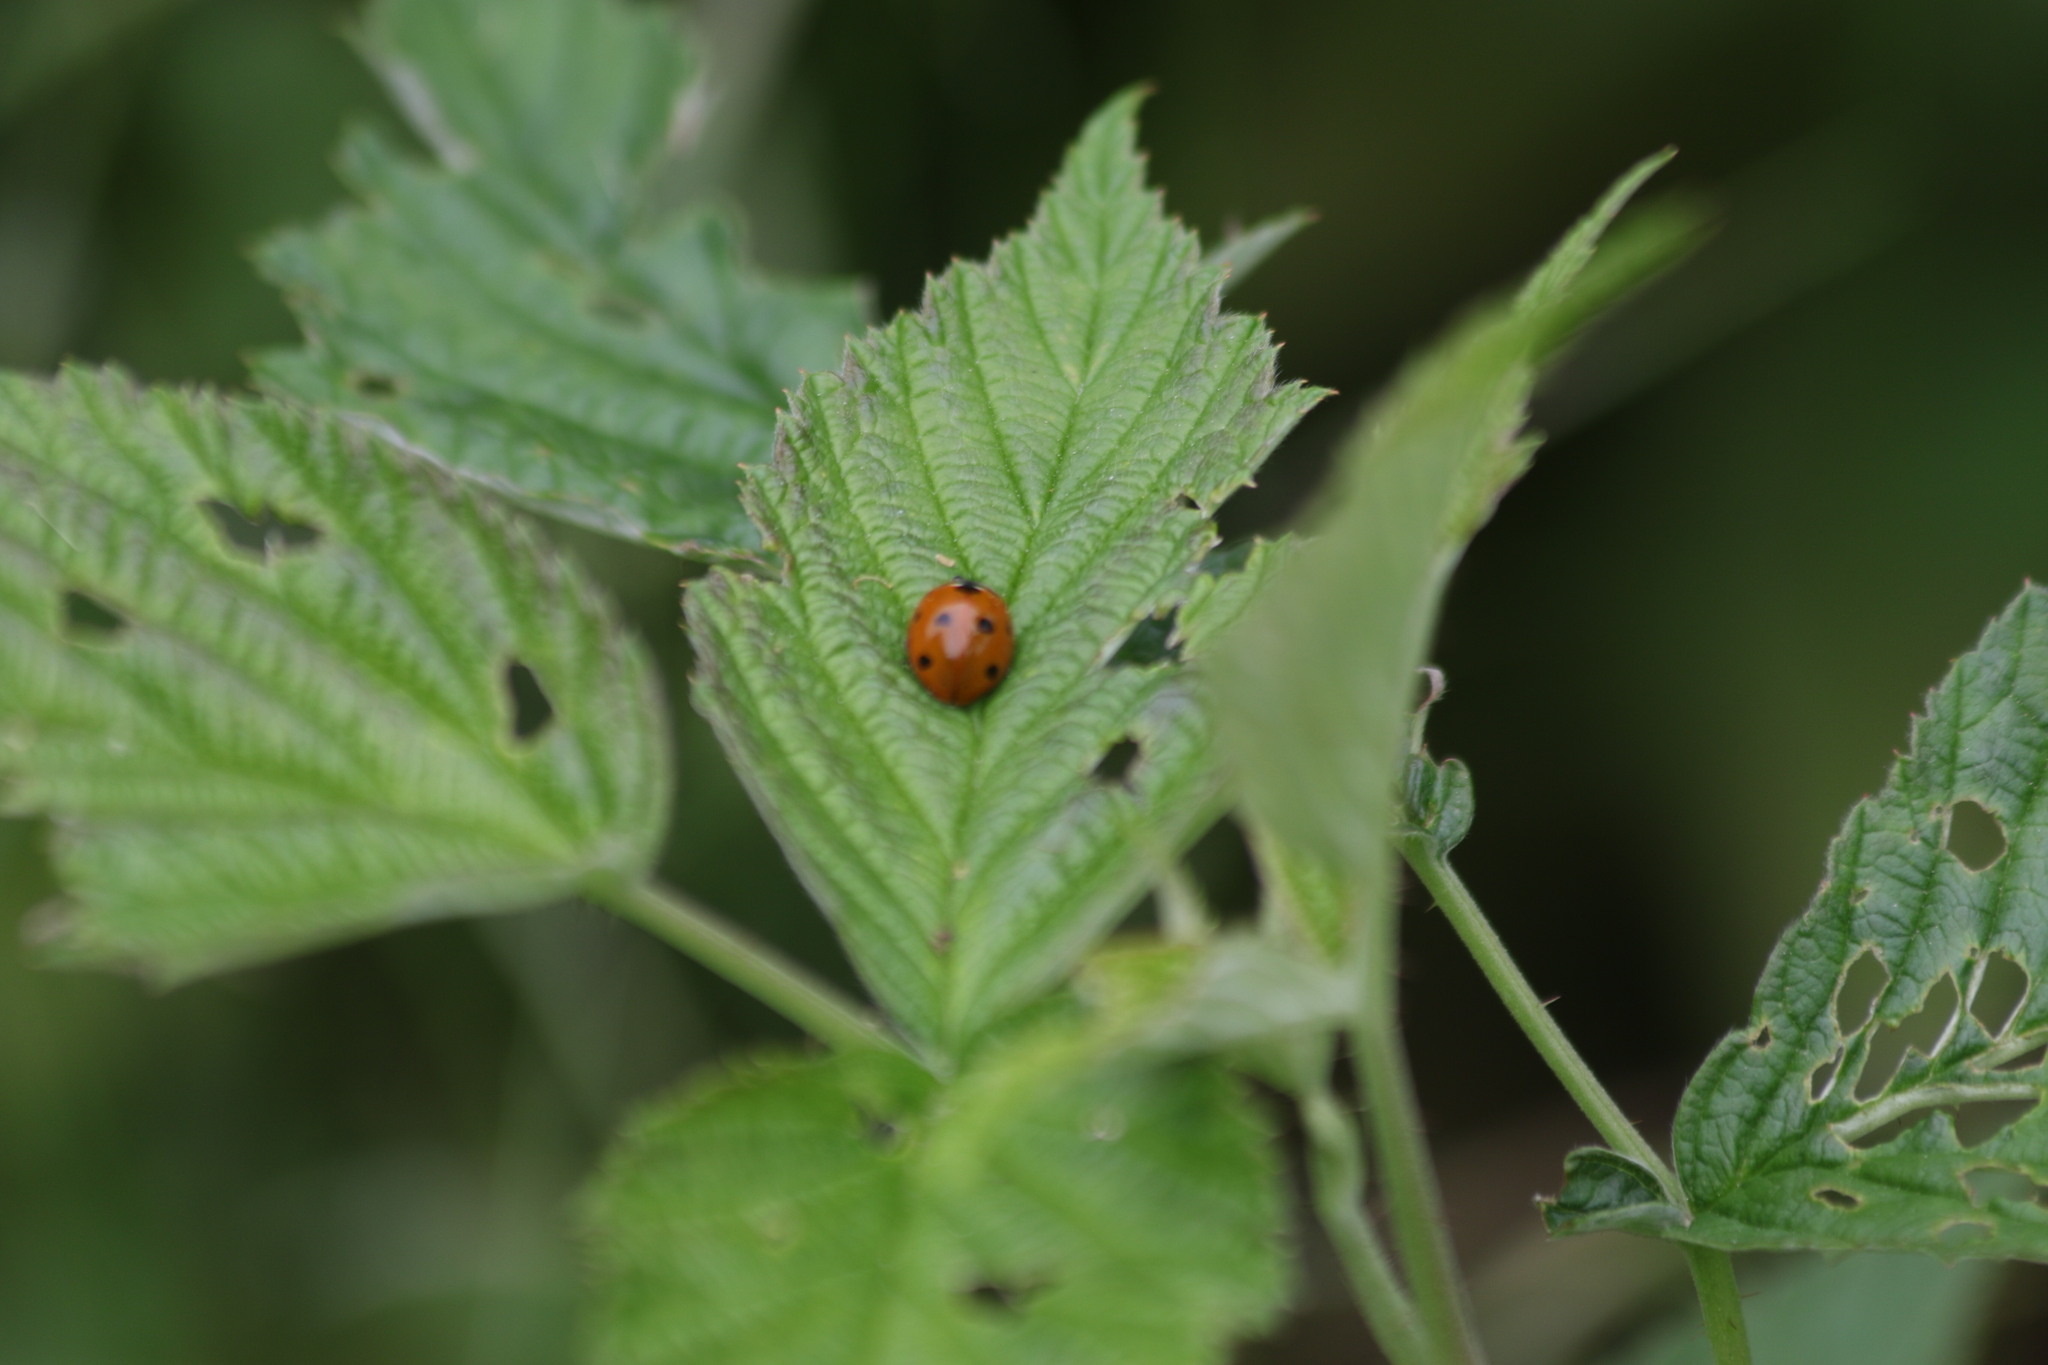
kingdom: Animalia
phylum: Arthropoda
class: Insecta
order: Coleoptera
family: Coccinellidae
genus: Coccinella
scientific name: Coccinella septempunctata
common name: Sevenspotted lady beetle
